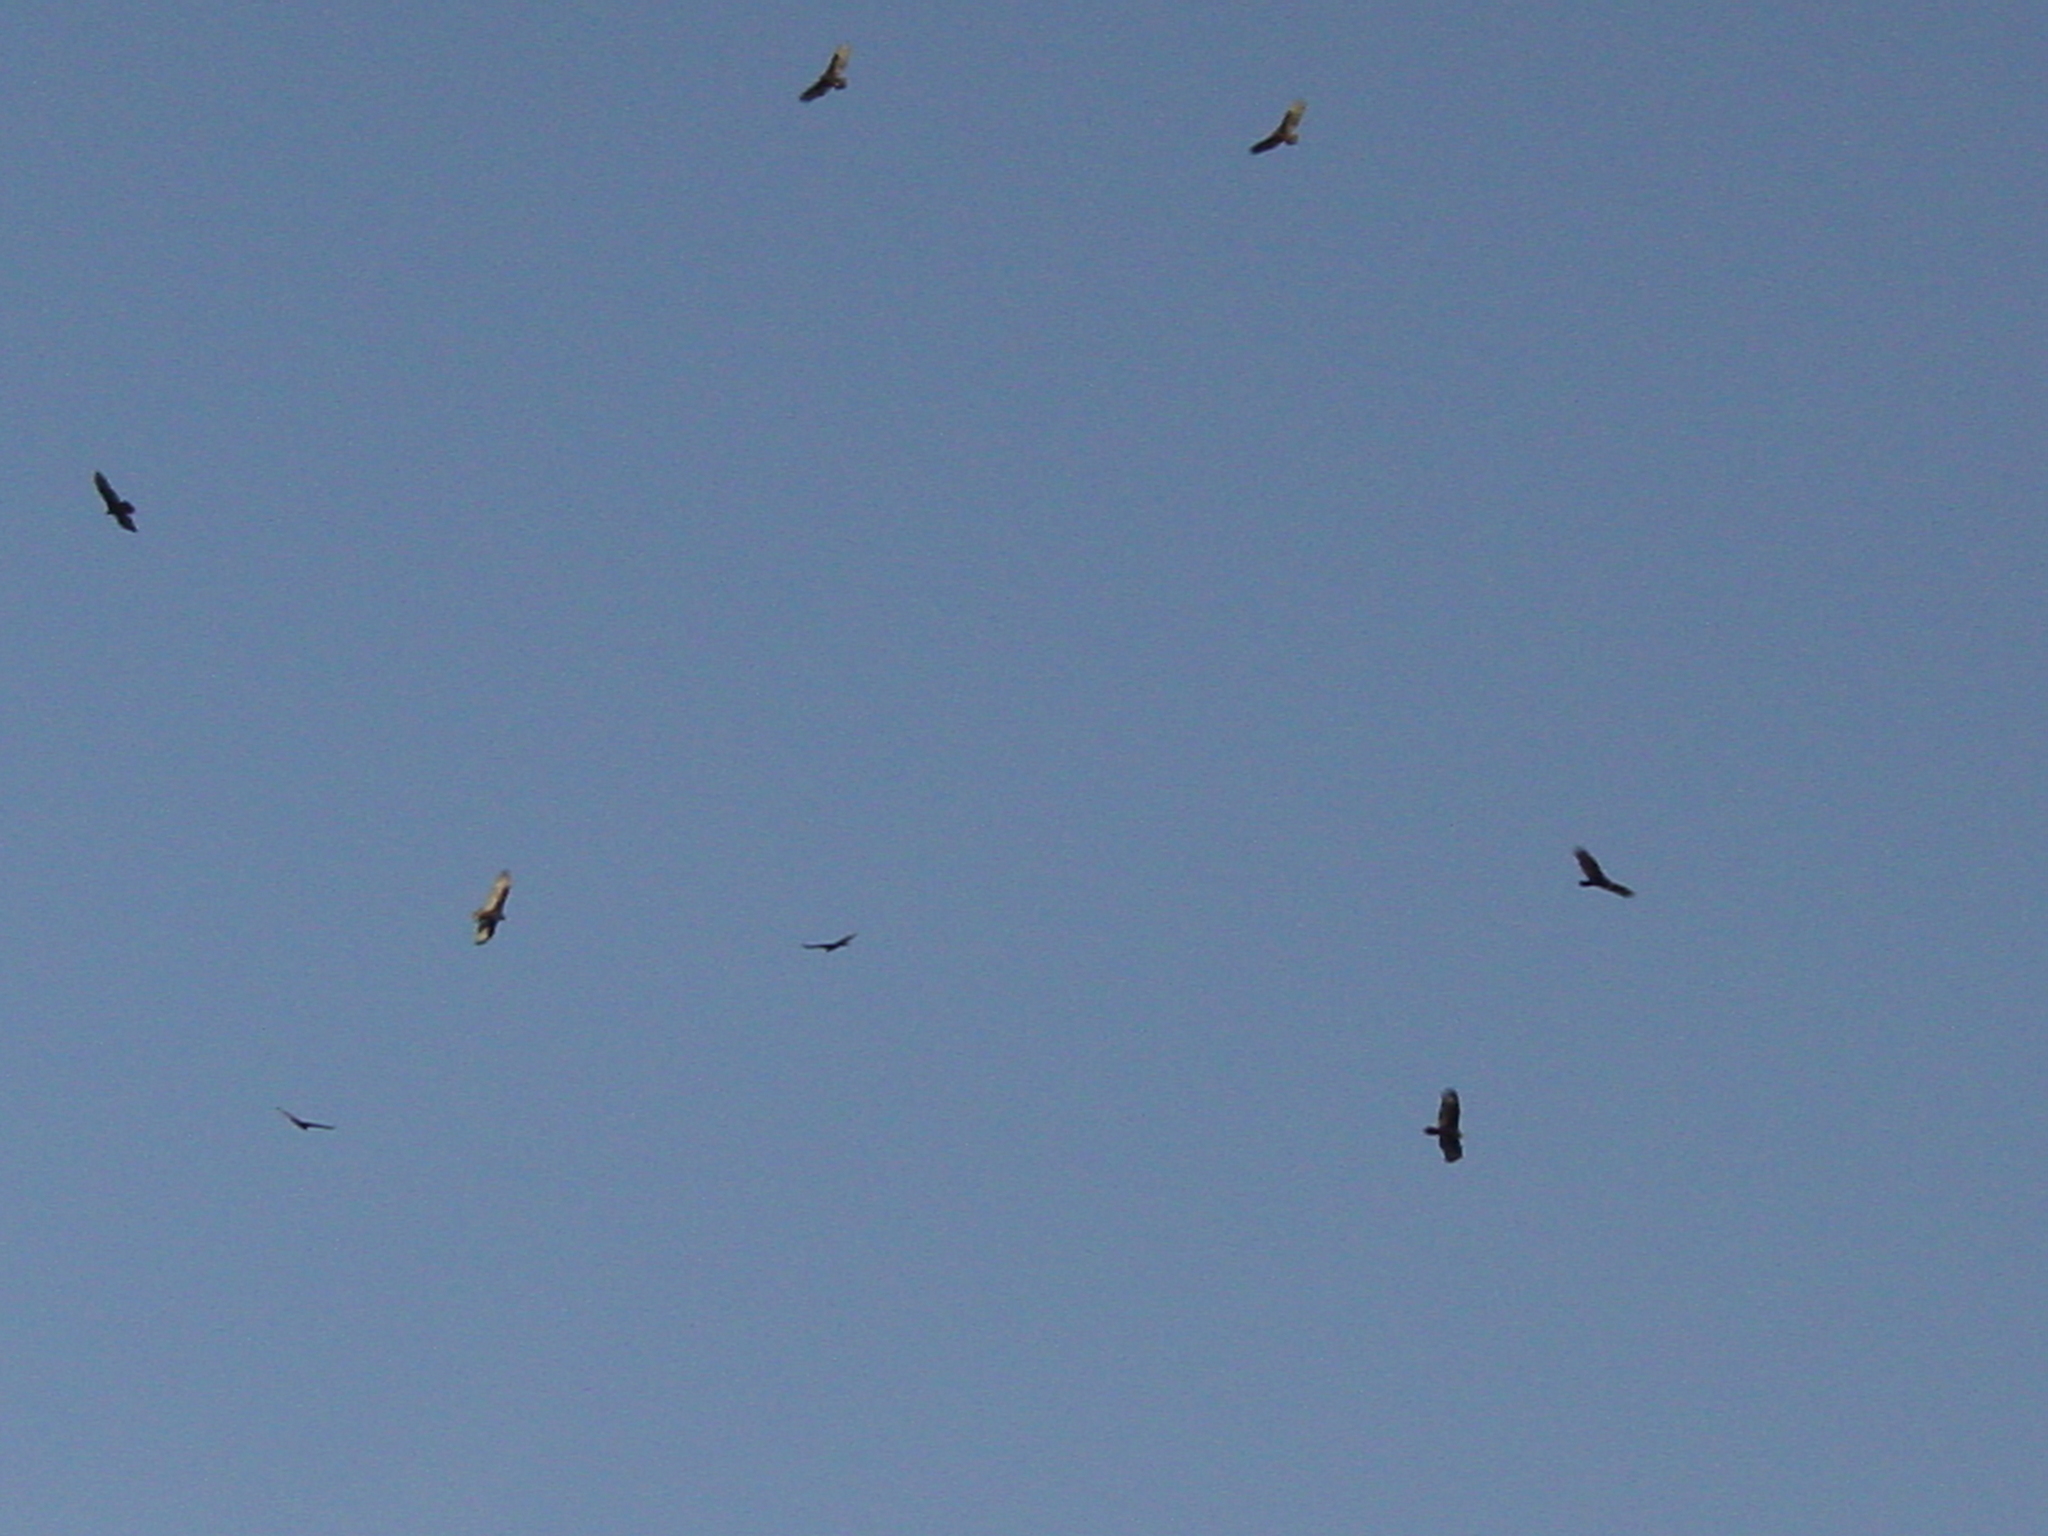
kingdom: Animalia
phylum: Chordata
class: Aves
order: Accipitriformes
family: Cathartidae
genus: Cathartes
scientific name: Cathartes aura
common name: Turkey vulture
